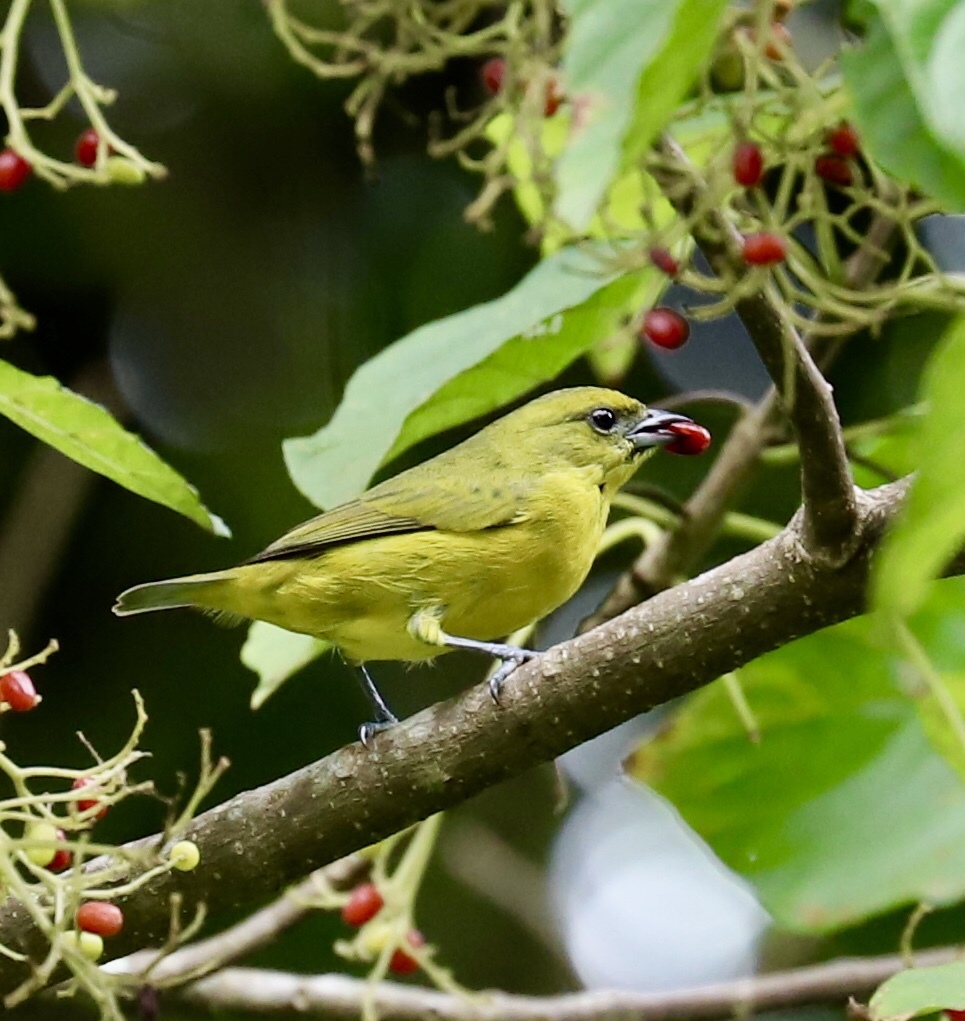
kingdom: Animalia
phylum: Chordata
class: Aves
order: Passeriformes
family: Fringillidae
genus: Euphonia
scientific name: Euphonia laniirostris
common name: Thick-billed euphonia
